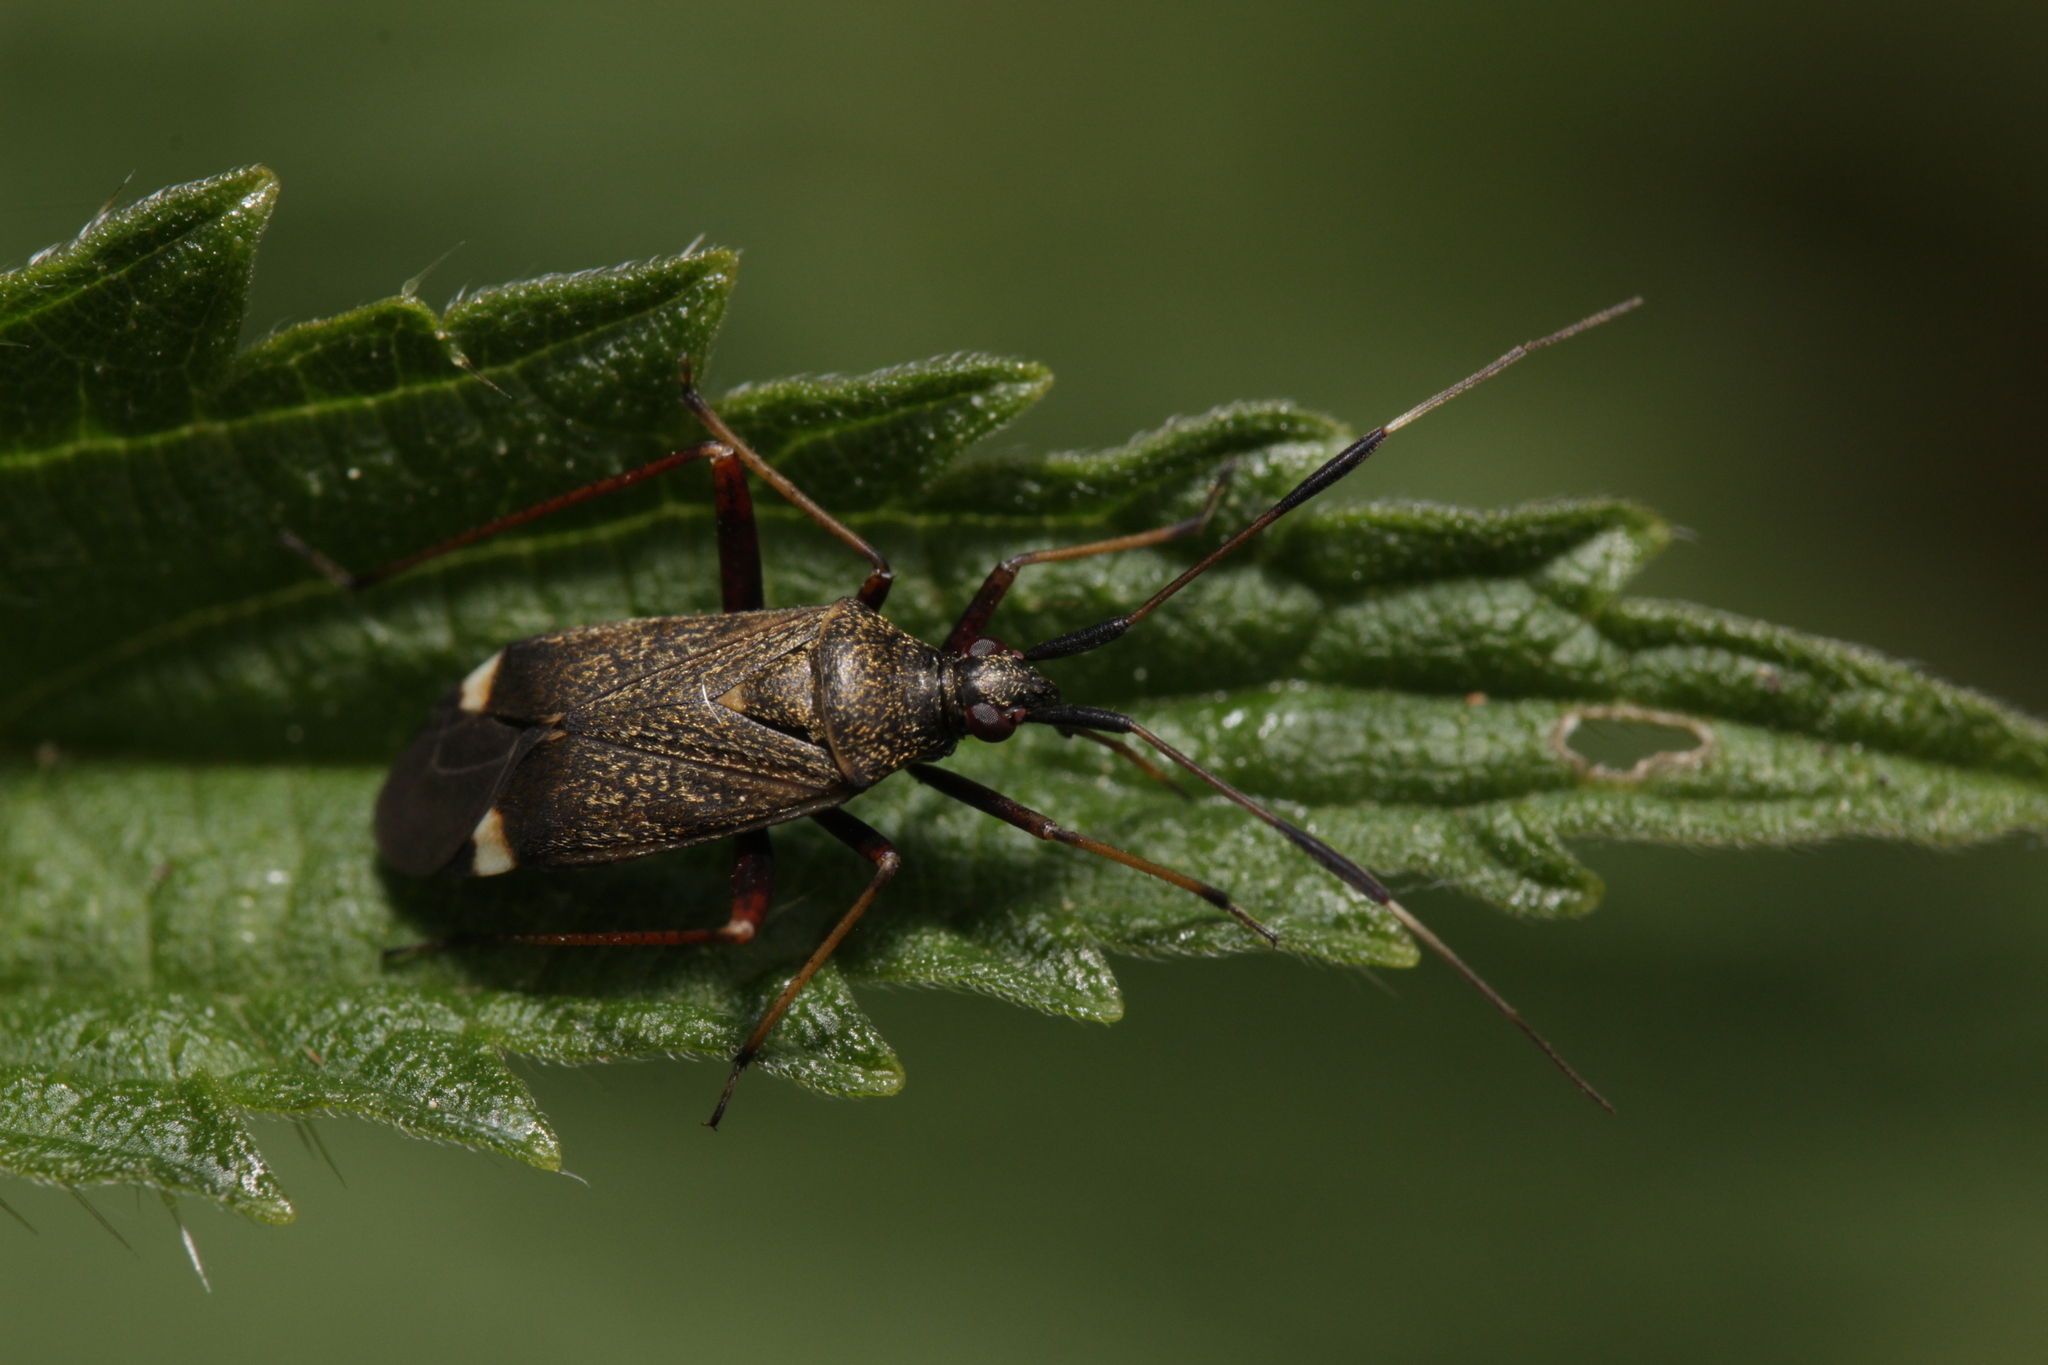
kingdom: Animalia
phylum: Arthropoda
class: Insecta
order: Hemiptera
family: Miridae
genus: Closterotomus
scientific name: Closterotomus biclavatus
